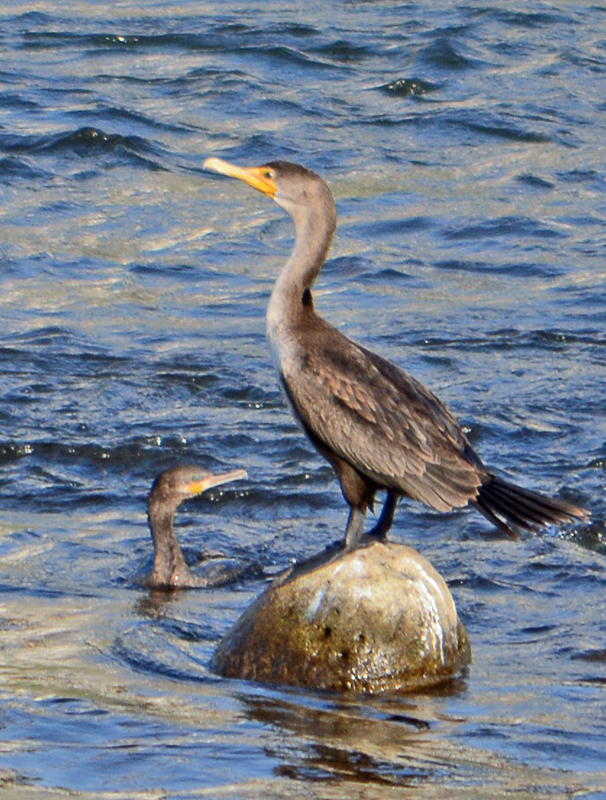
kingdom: Animalia
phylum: Chordata
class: Aves
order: Suliformes
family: Phalacrocoracidae
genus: Phalacrocorax
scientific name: Phalacrocorax auritus
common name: Double-crested cormorant
